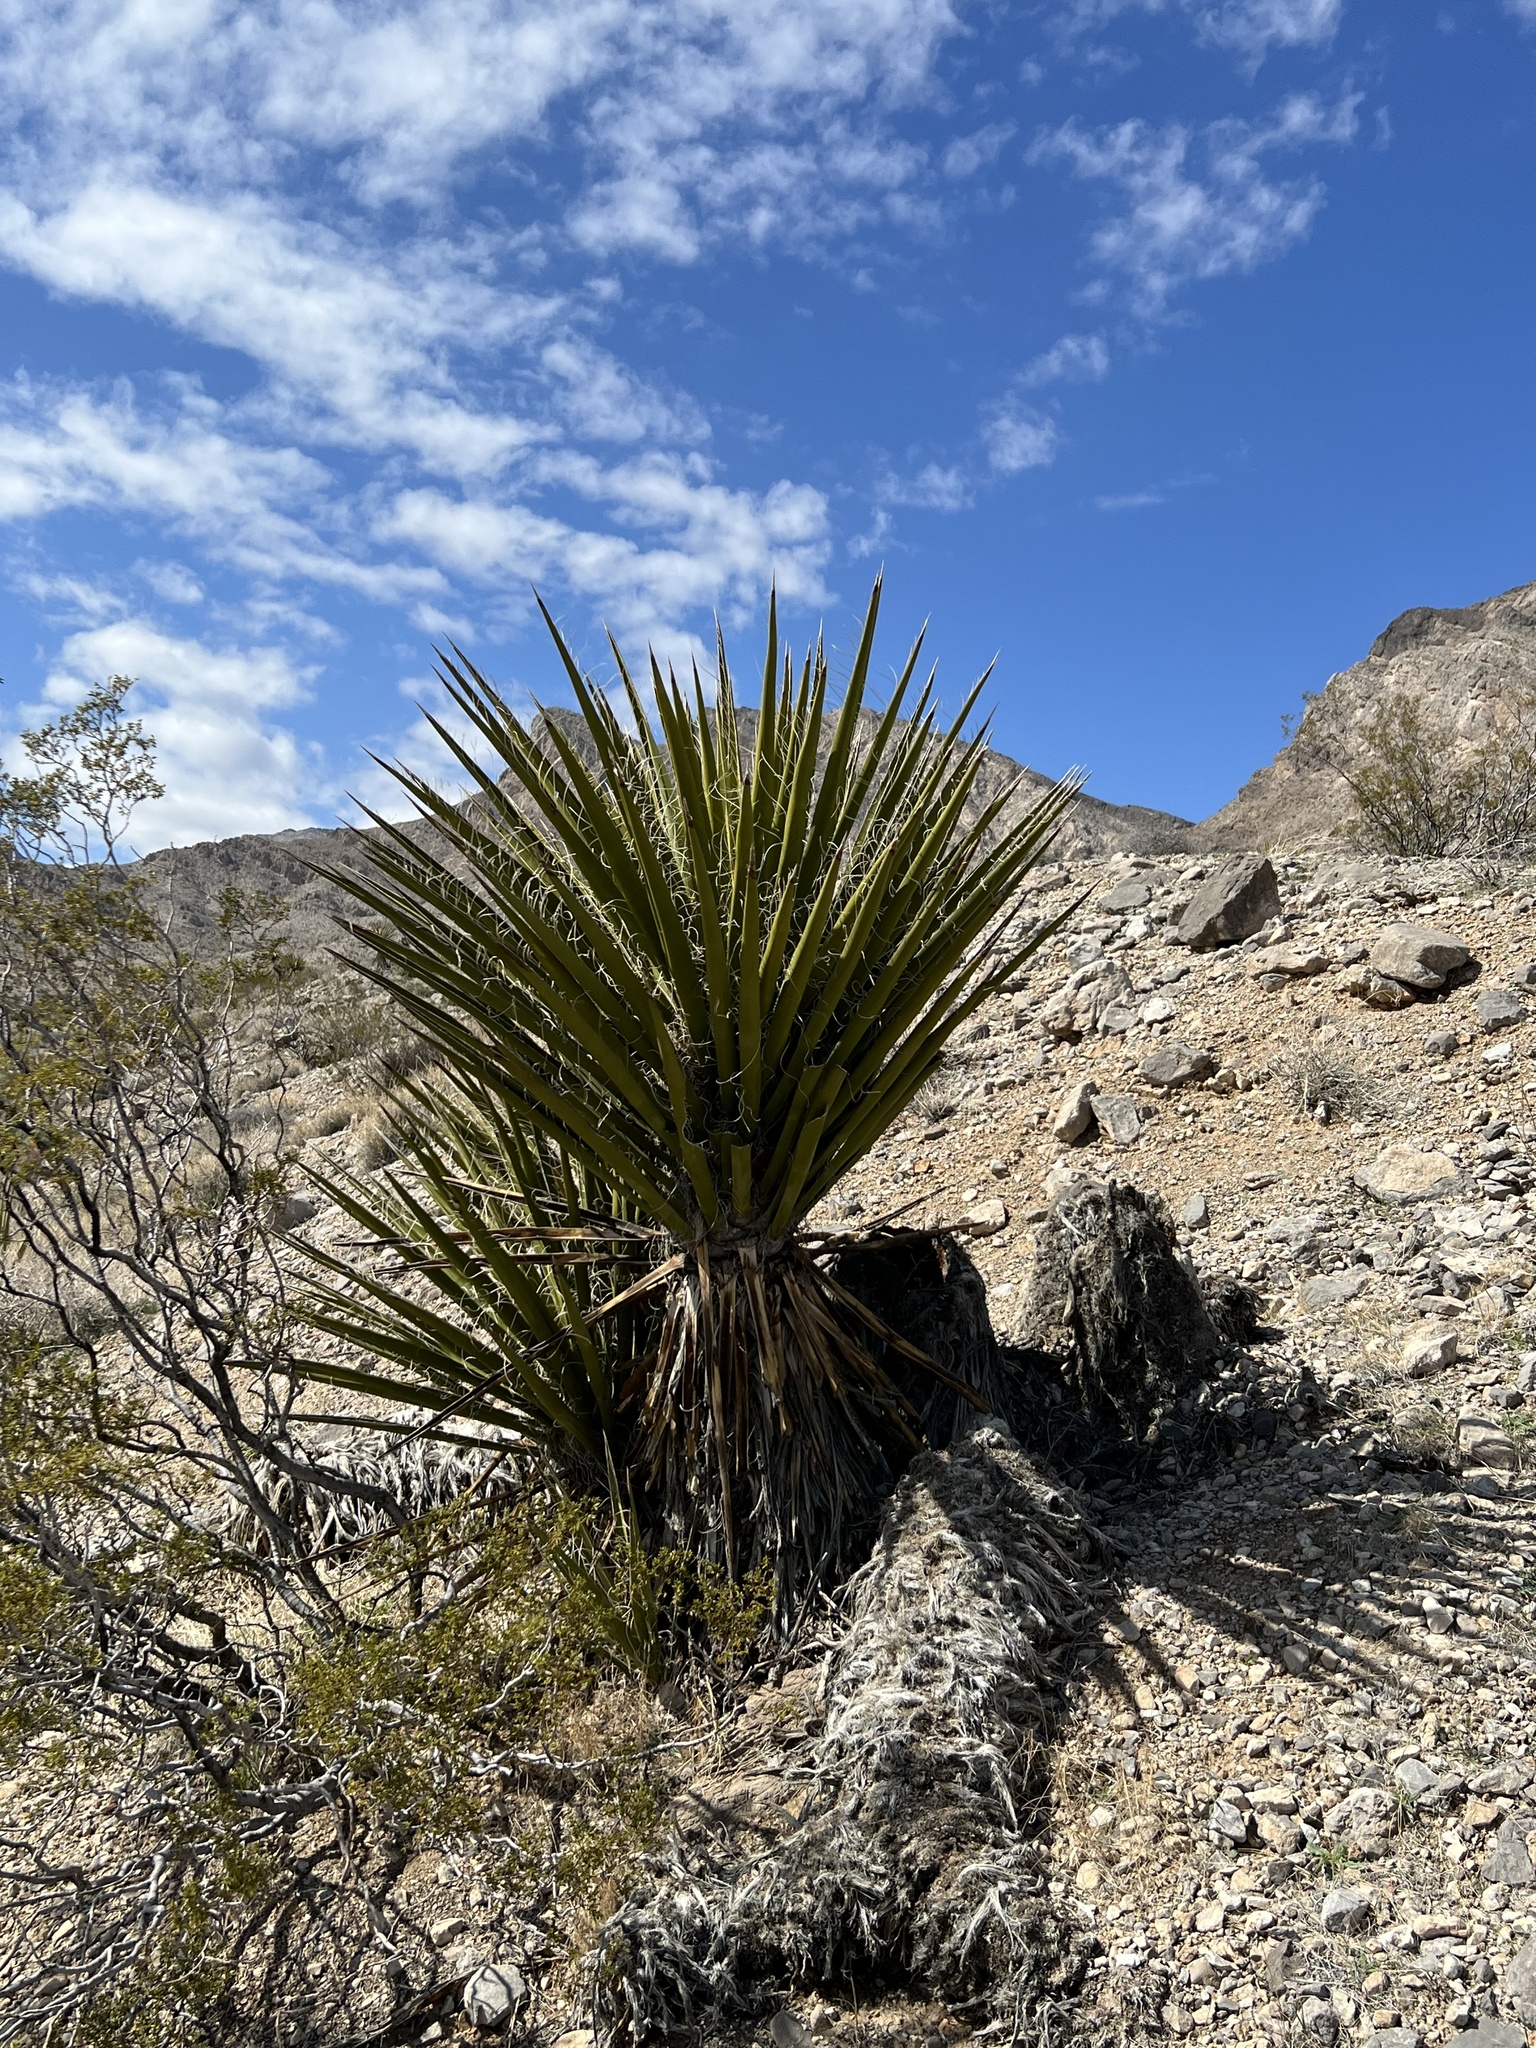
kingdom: Plantae
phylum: Tracheophyta
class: Liliopsida
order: Asparagales
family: Asparagaceae
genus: Yucca
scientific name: Yucca schidigera
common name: Mojave yucca
